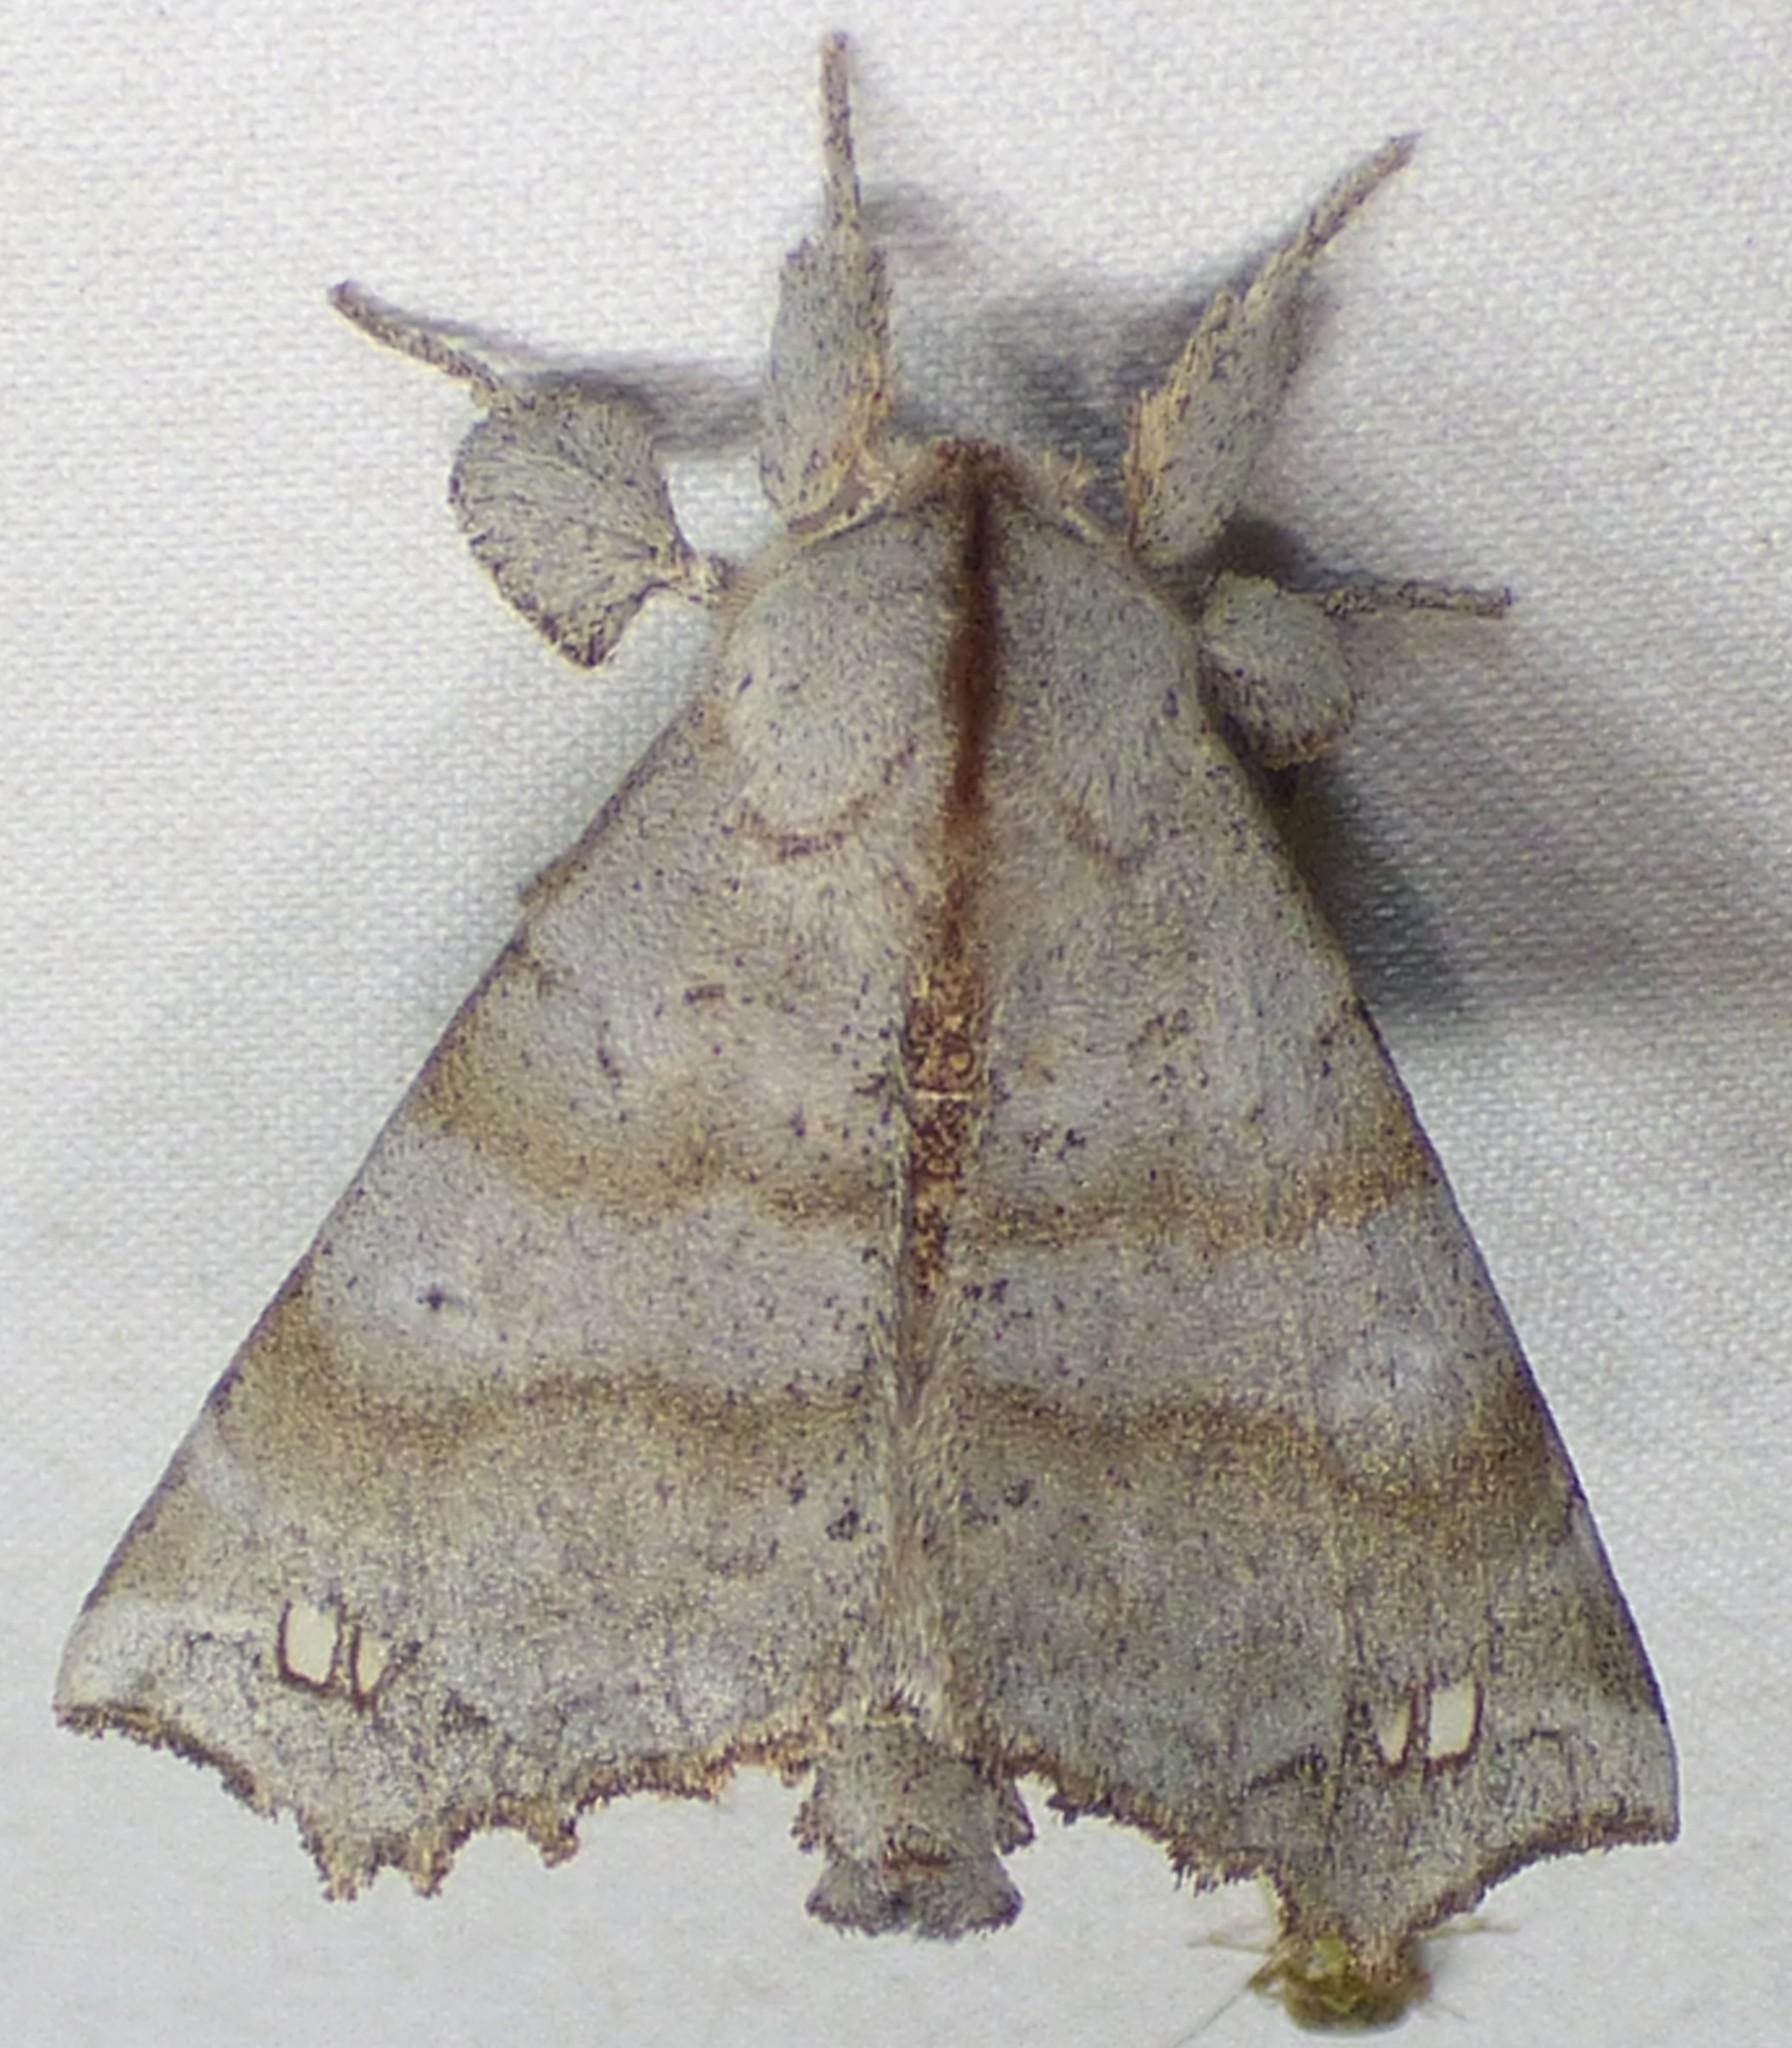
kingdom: Animalia
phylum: Arthropoda
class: Insecta
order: Lepidoptera
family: Apatelodidae
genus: Olceclostera
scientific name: Olceclostera angelica
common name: Angel moth
